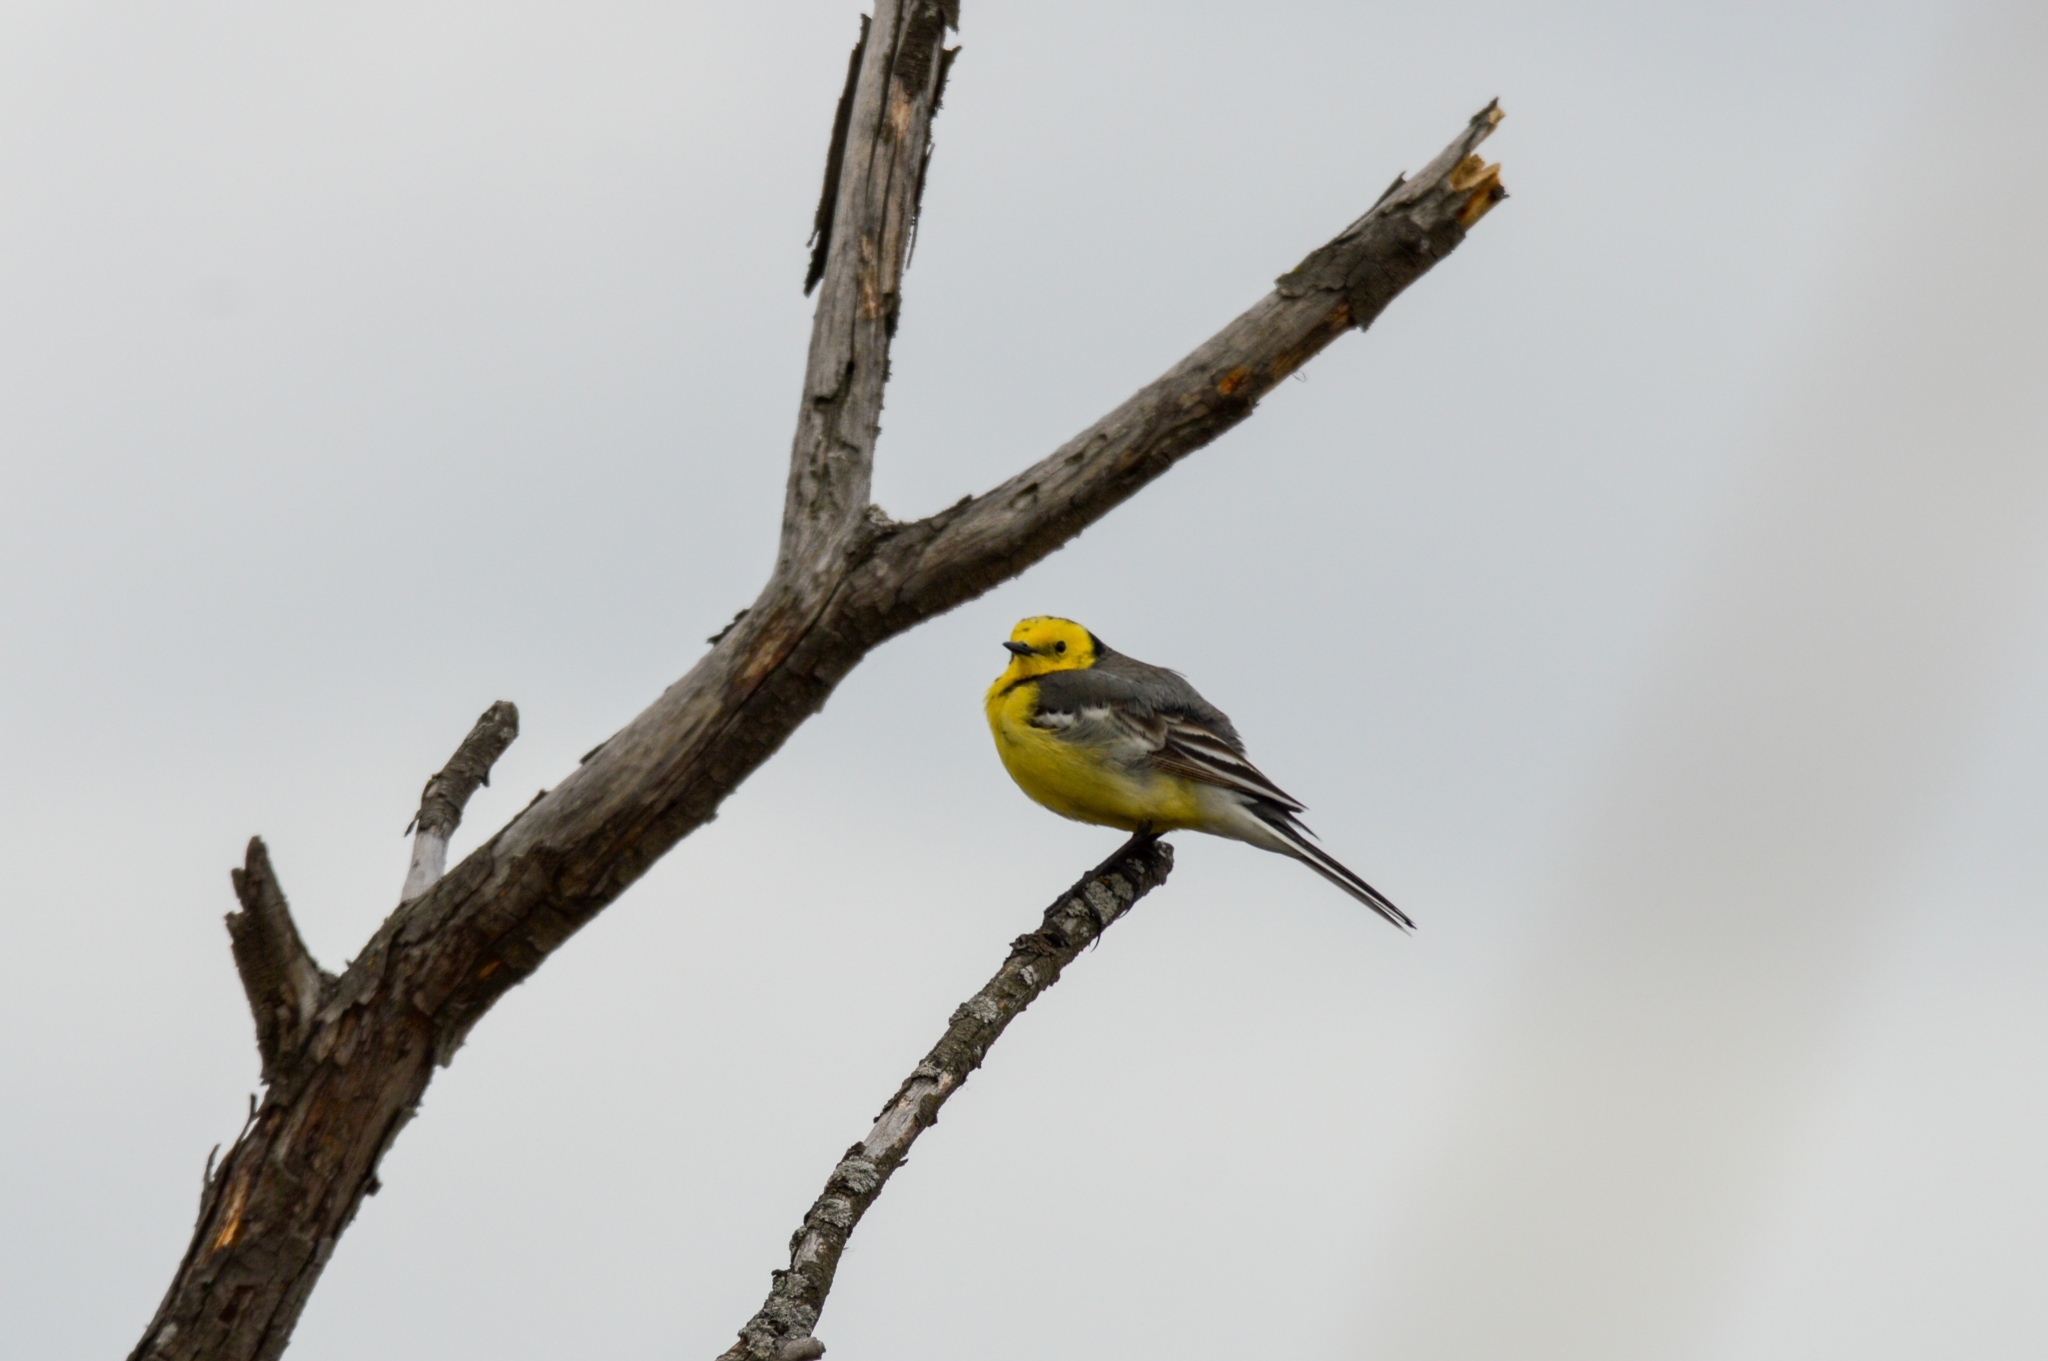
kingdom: Animalia
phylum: Chordata
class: Aves
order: Passeriformes
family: Motacillidae
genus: Motacilla
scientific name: Motacilla citreola
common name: Citrine wagtail
